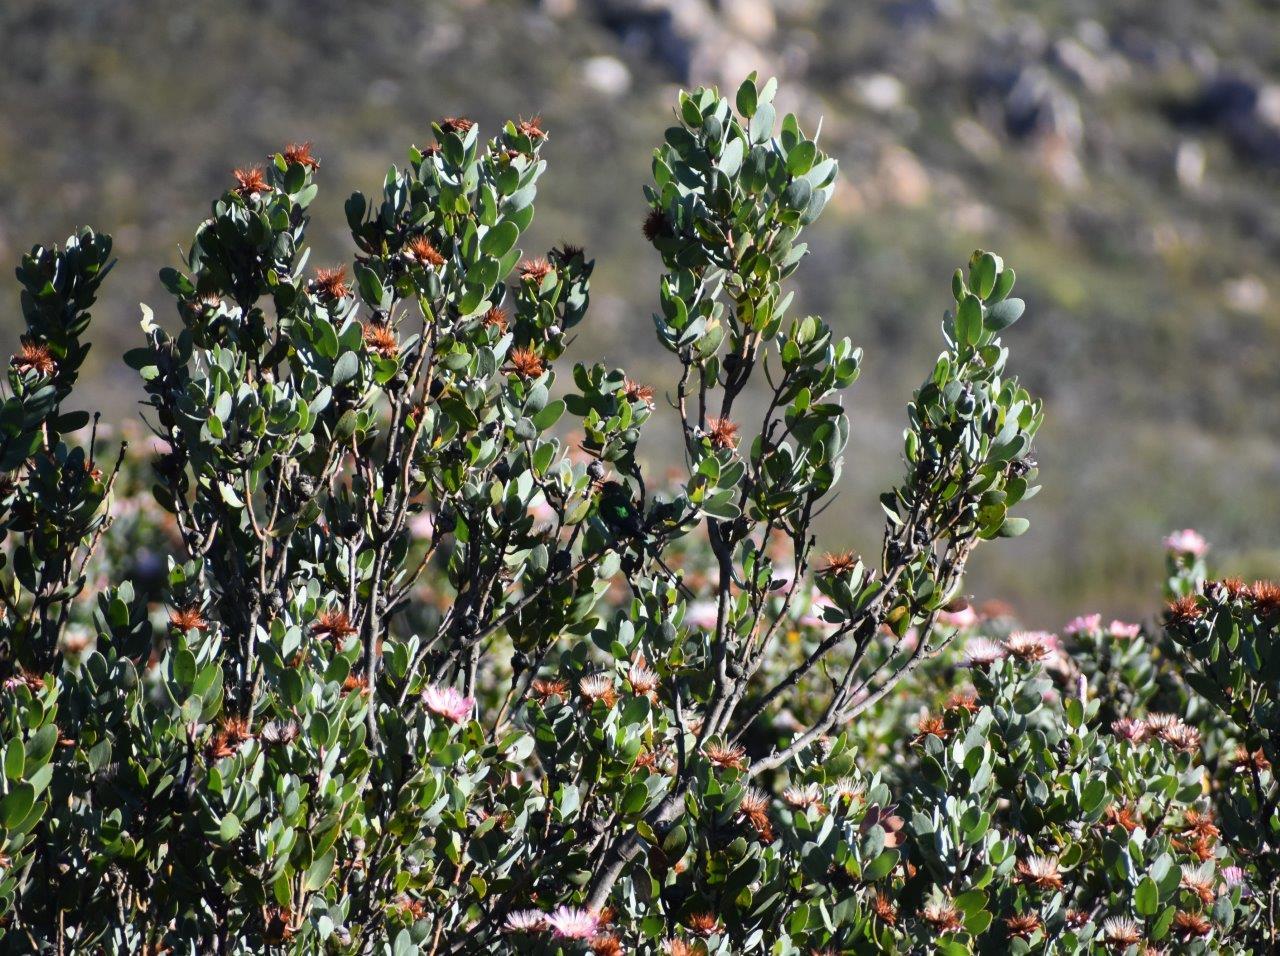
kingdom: Plantae
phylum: Tracheophyta
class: Magnoliopsida
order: Proteales
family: Proteaceae
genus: Protea
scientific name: Protea punctata
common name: Water sugarbush
